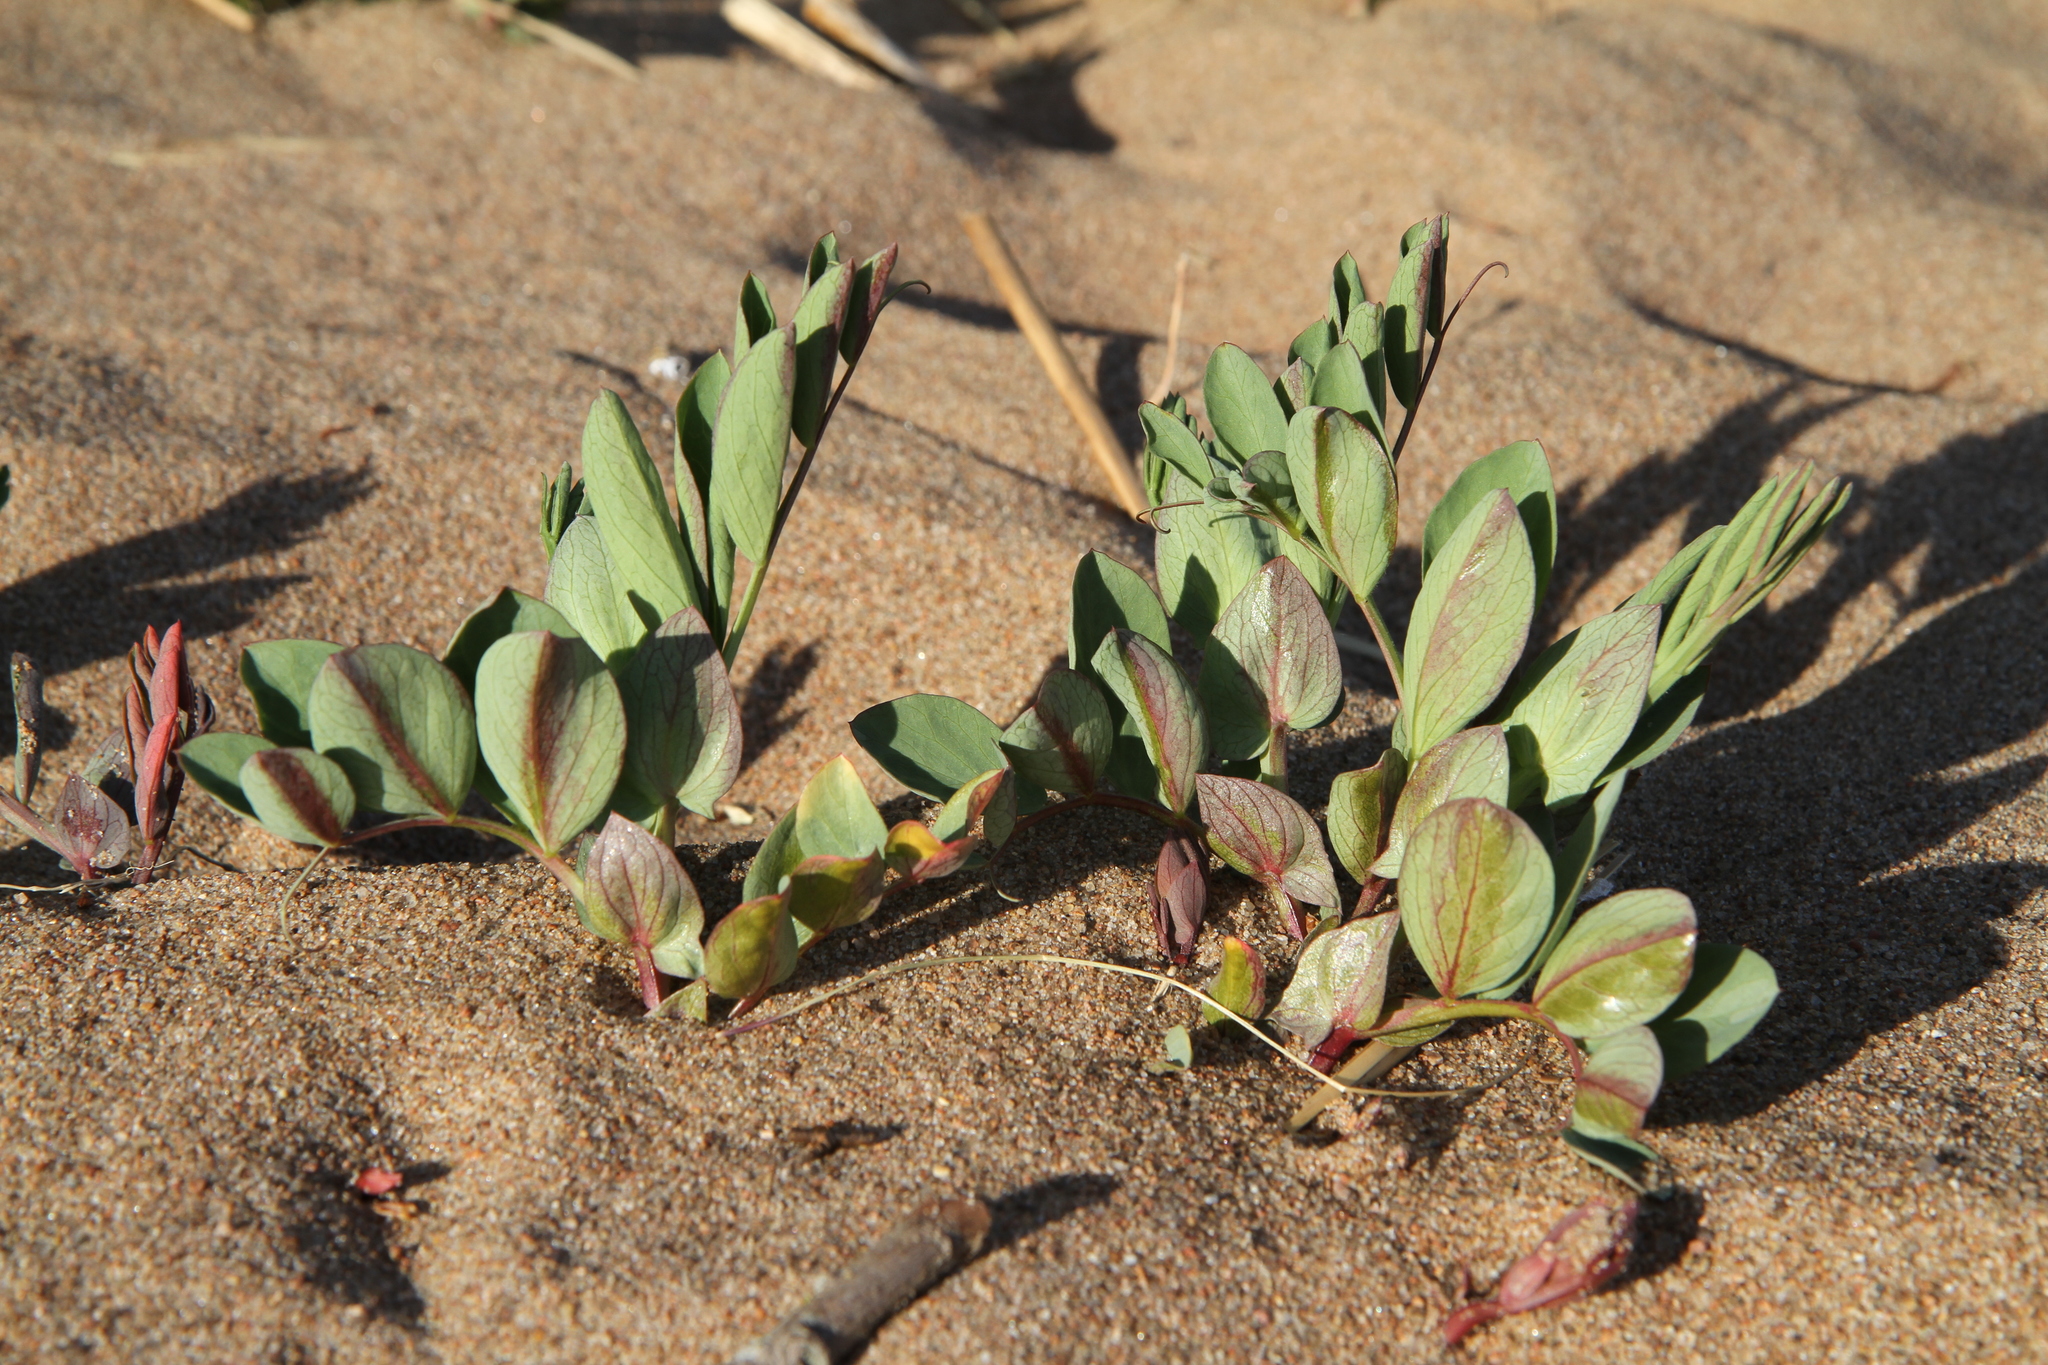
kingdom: Plantae
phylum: Tracheophyta
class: Magnoliopsida
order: Fabales
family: Fabaceae
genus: Lathyrus
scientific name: Lathyrus japonicus
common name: Sea pea
